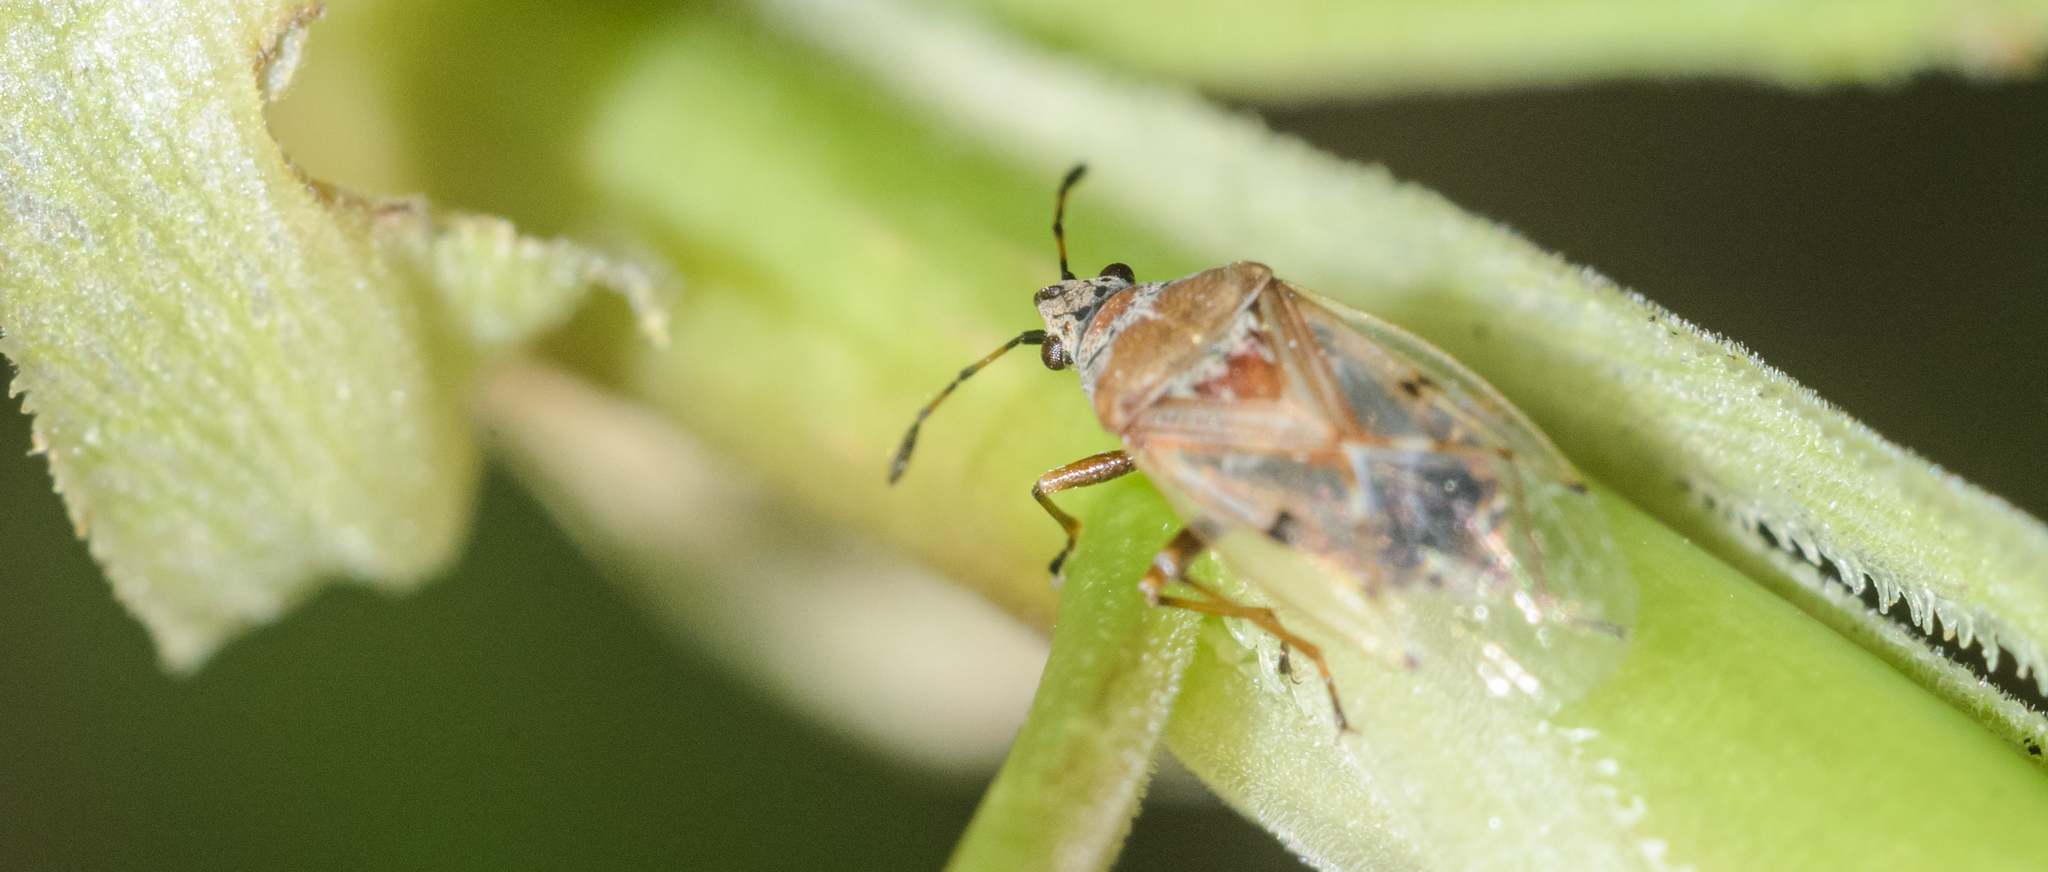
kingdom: Animalia
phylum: Arthropoda
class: Insecta
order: Hemiptera
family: Lygaeidae
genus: Kleidocerys
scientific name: Kleidocerys resedae
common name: Birch catkin bug
